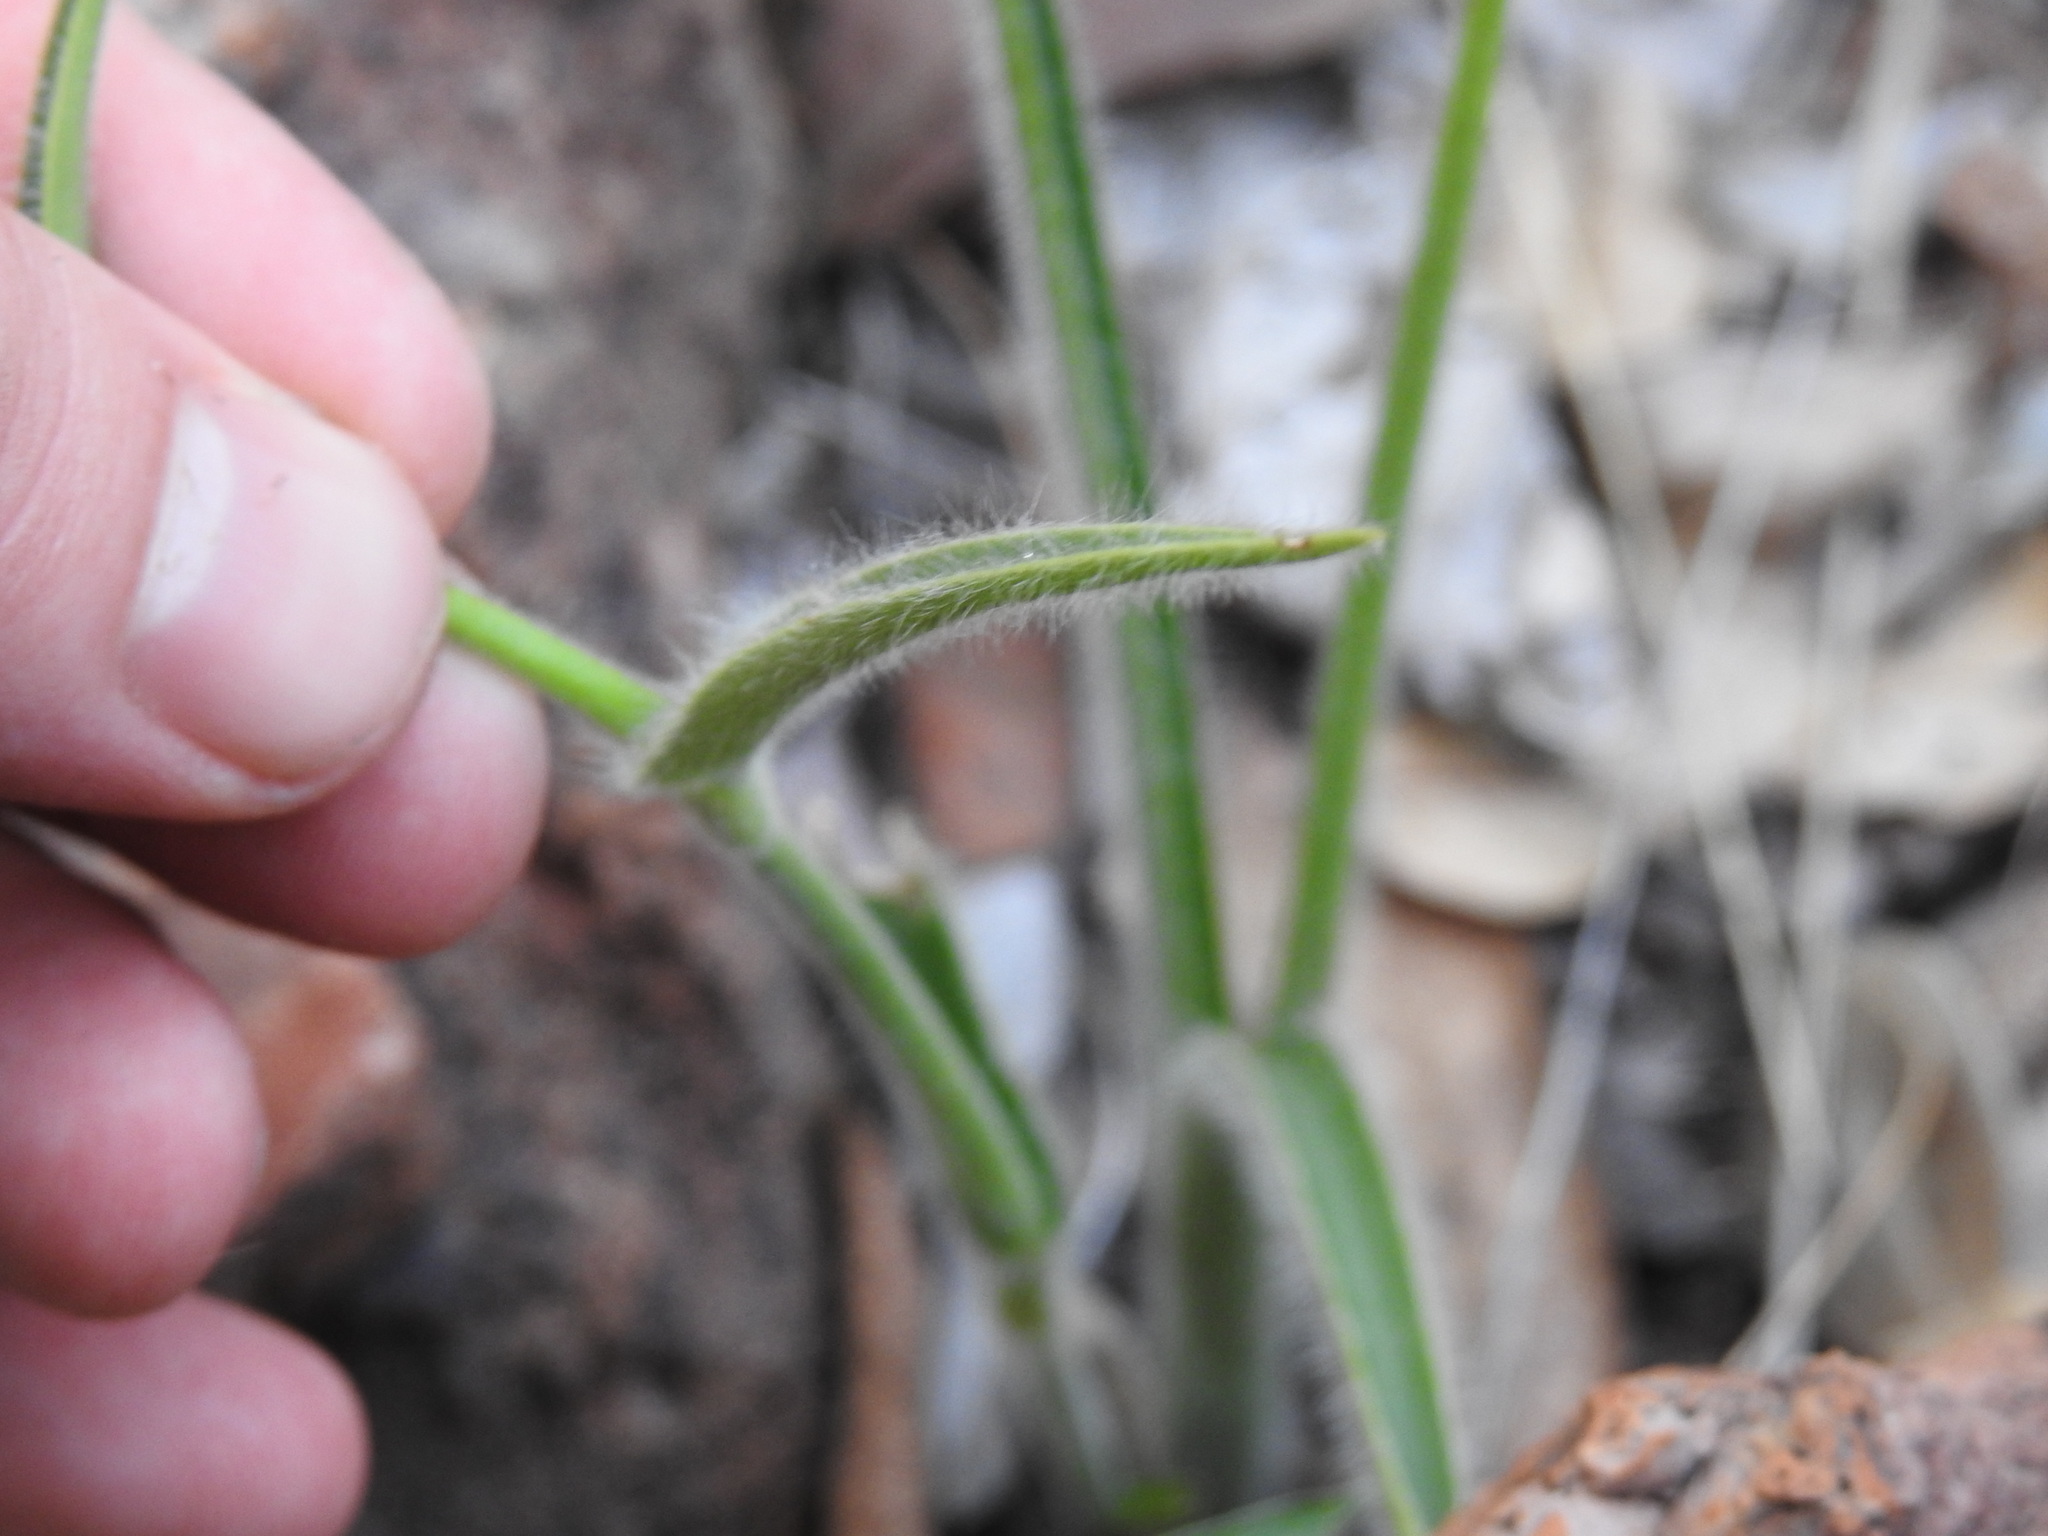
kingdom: Plantae
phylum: Tracheophyta
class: Liliopsida
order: Commelinales
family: Commelinaceae
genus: Cyanotis
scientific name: Cyanotis speciosa
